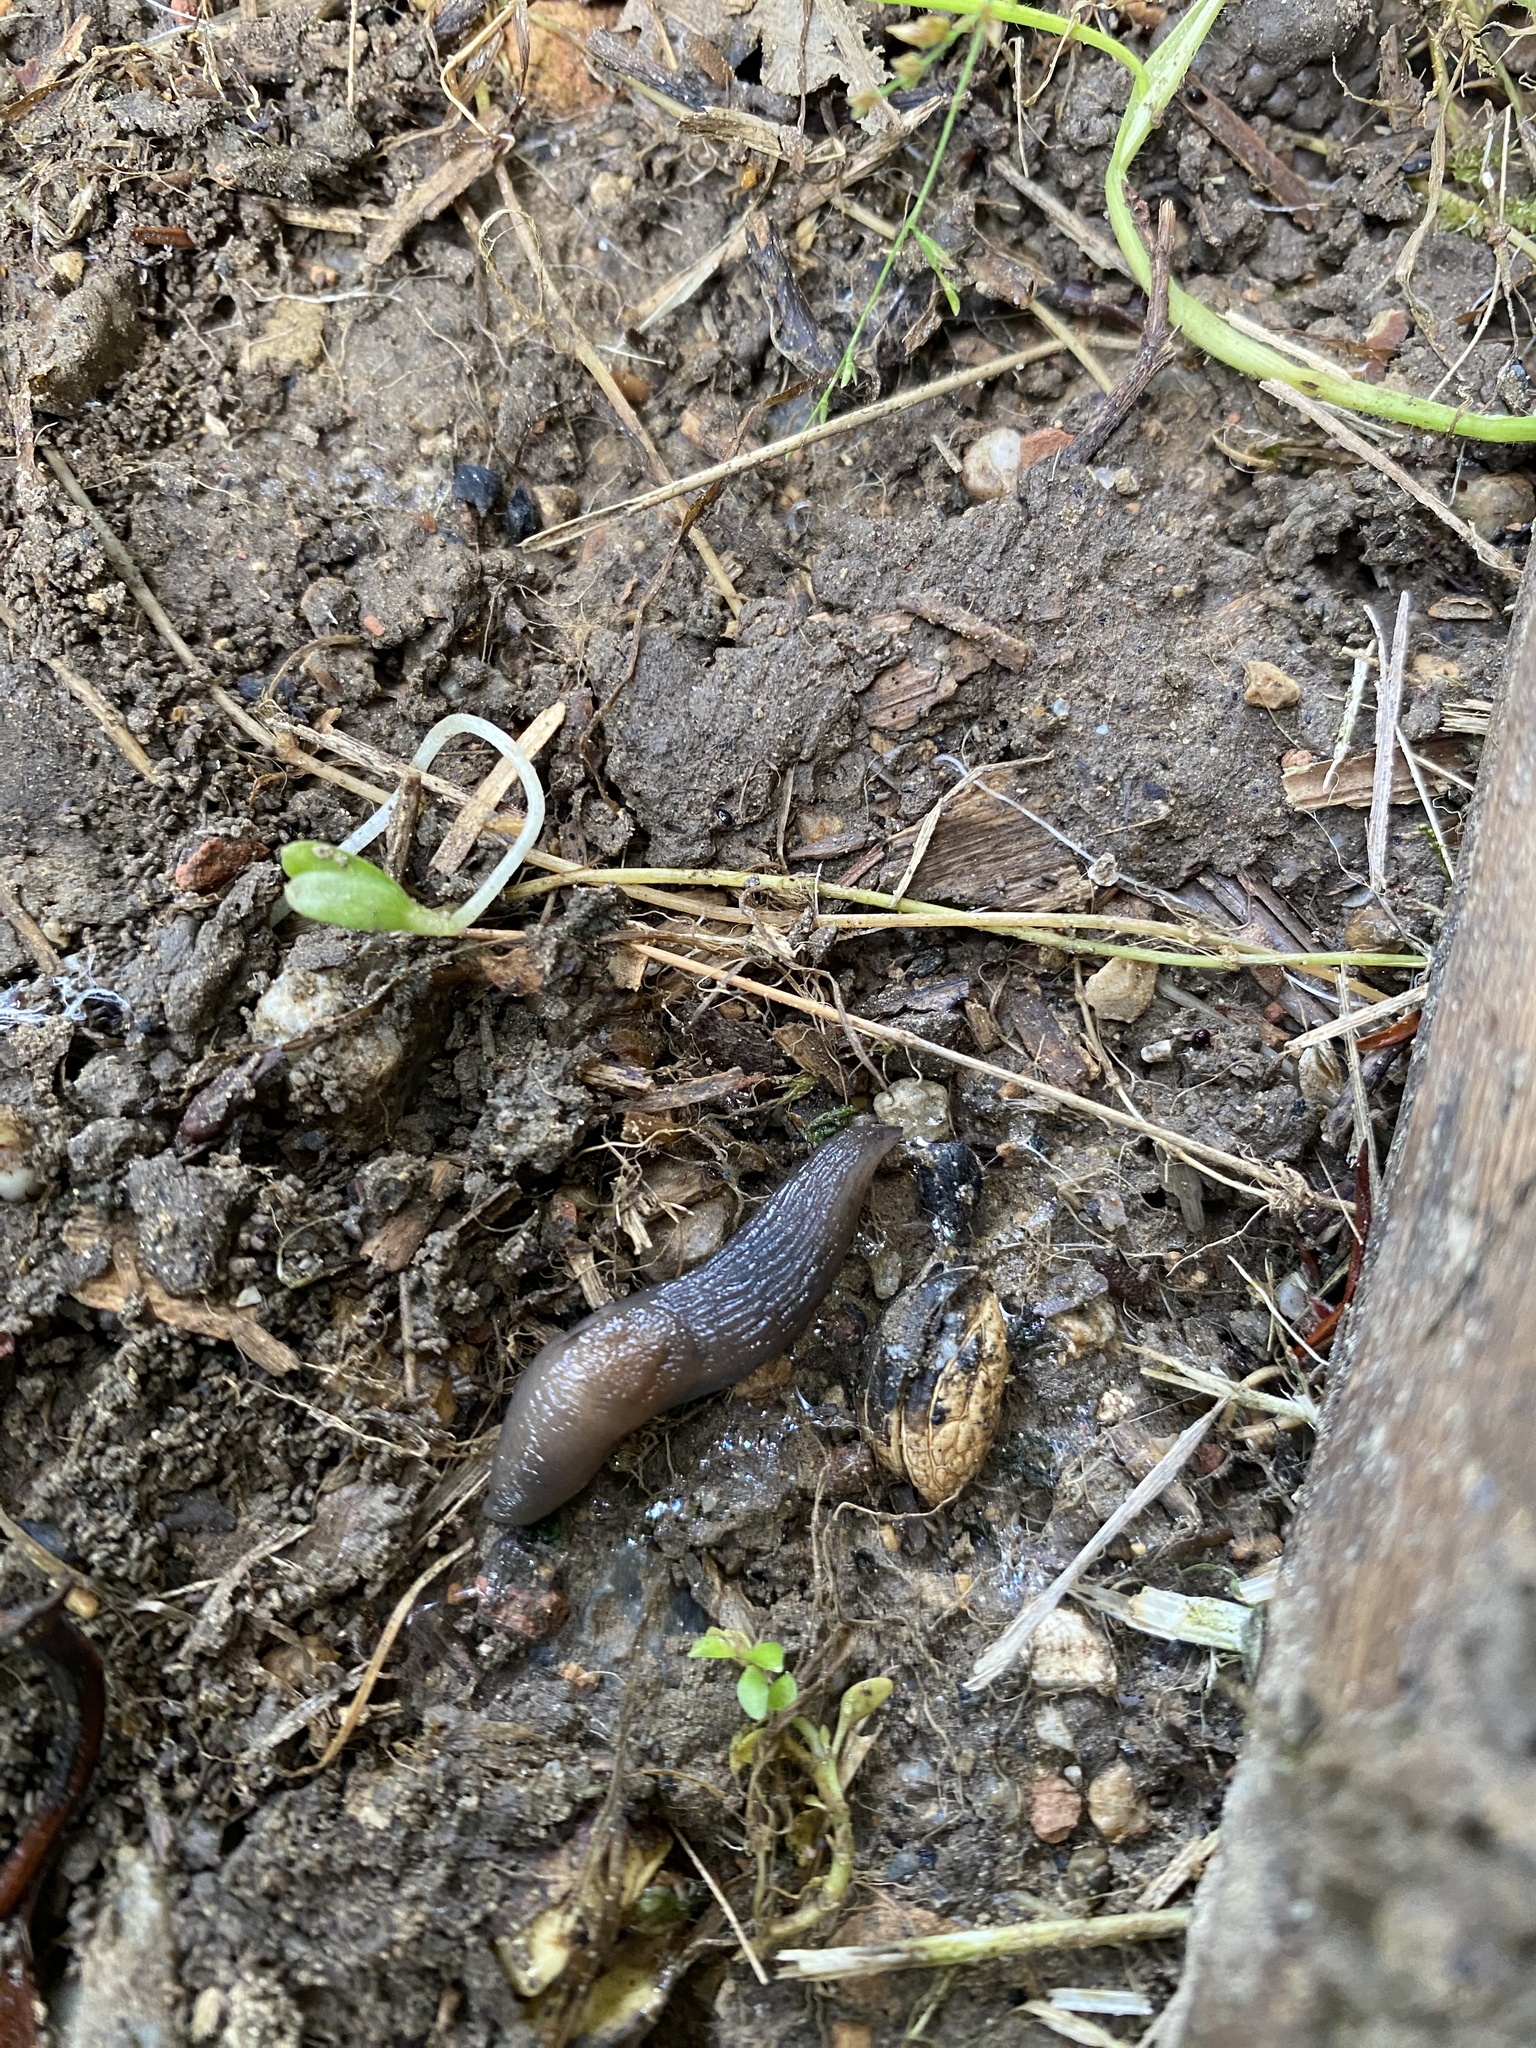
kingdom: Animalia
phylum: Mollusca
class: Gastropoda
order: Stylommatophora
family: Agriolimacidae
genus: Deroceras
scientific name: Deroceras invadens
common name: Caruana's slug
